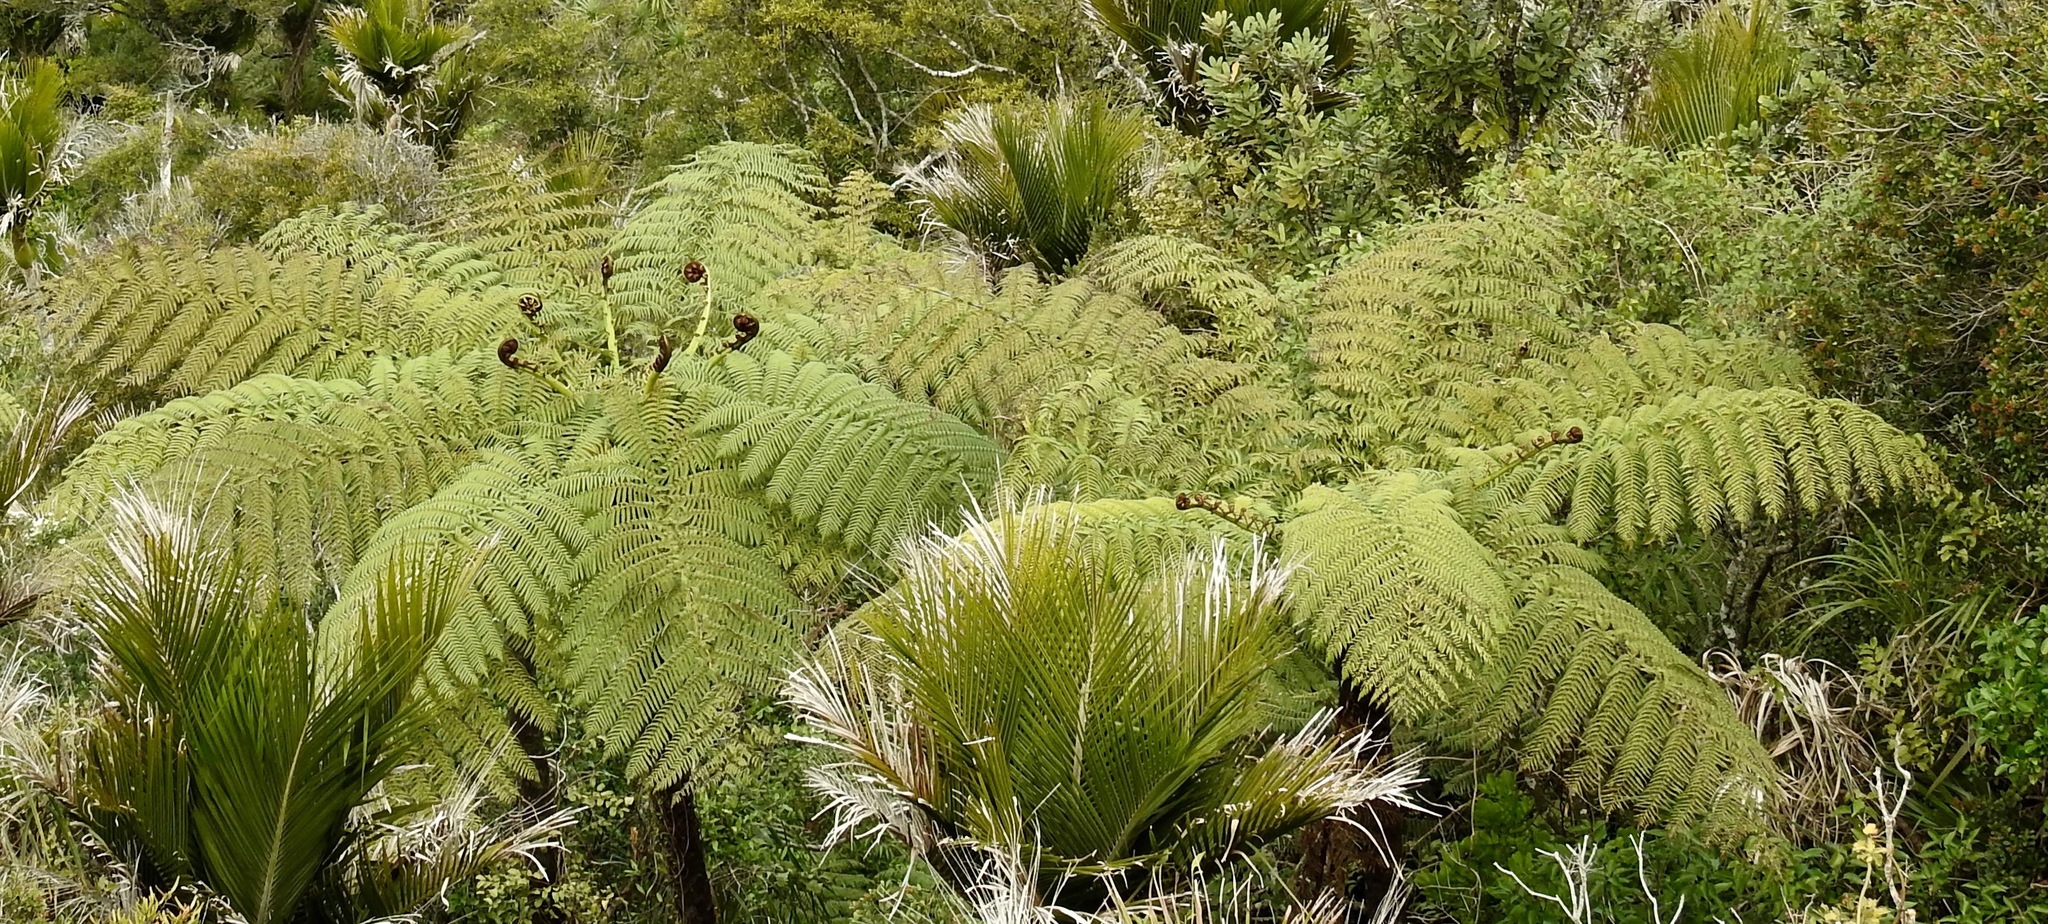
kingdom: Plantae
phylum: Tracheophyta
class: Polypodiopsida
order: Cyatheales
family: Cyatheaceae
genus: Sphaeropteris
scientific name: Sphaeropteris medullaris
